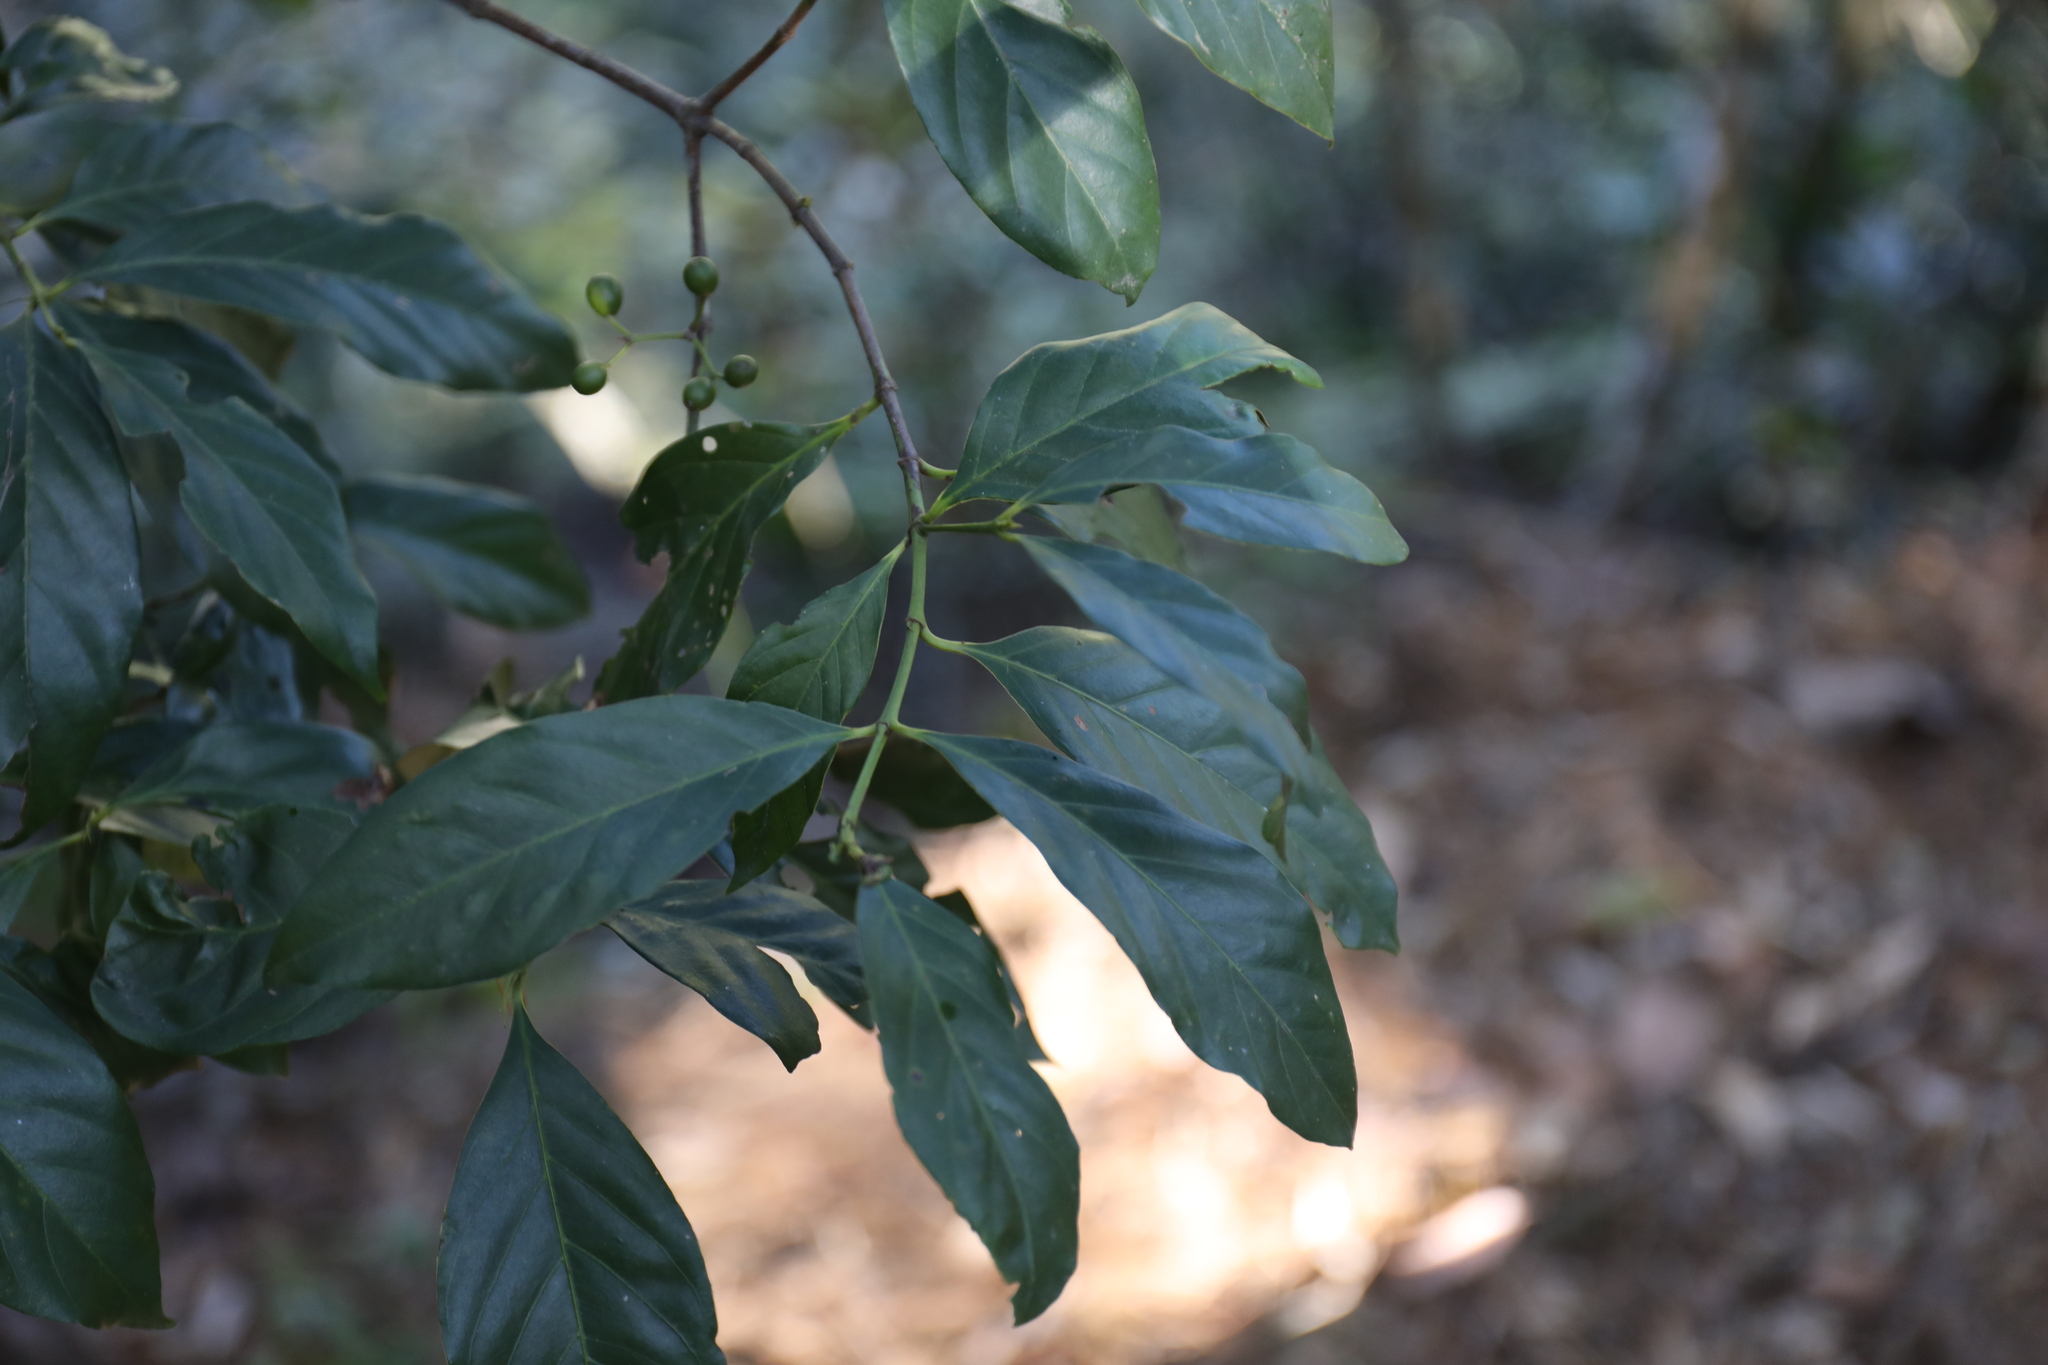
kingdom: Plantae
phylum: Tracheophyta
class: Magnoliopsida
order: Gentianales
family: Rubiaceae
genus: Aidia
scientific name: Aidia cochinchinensis
